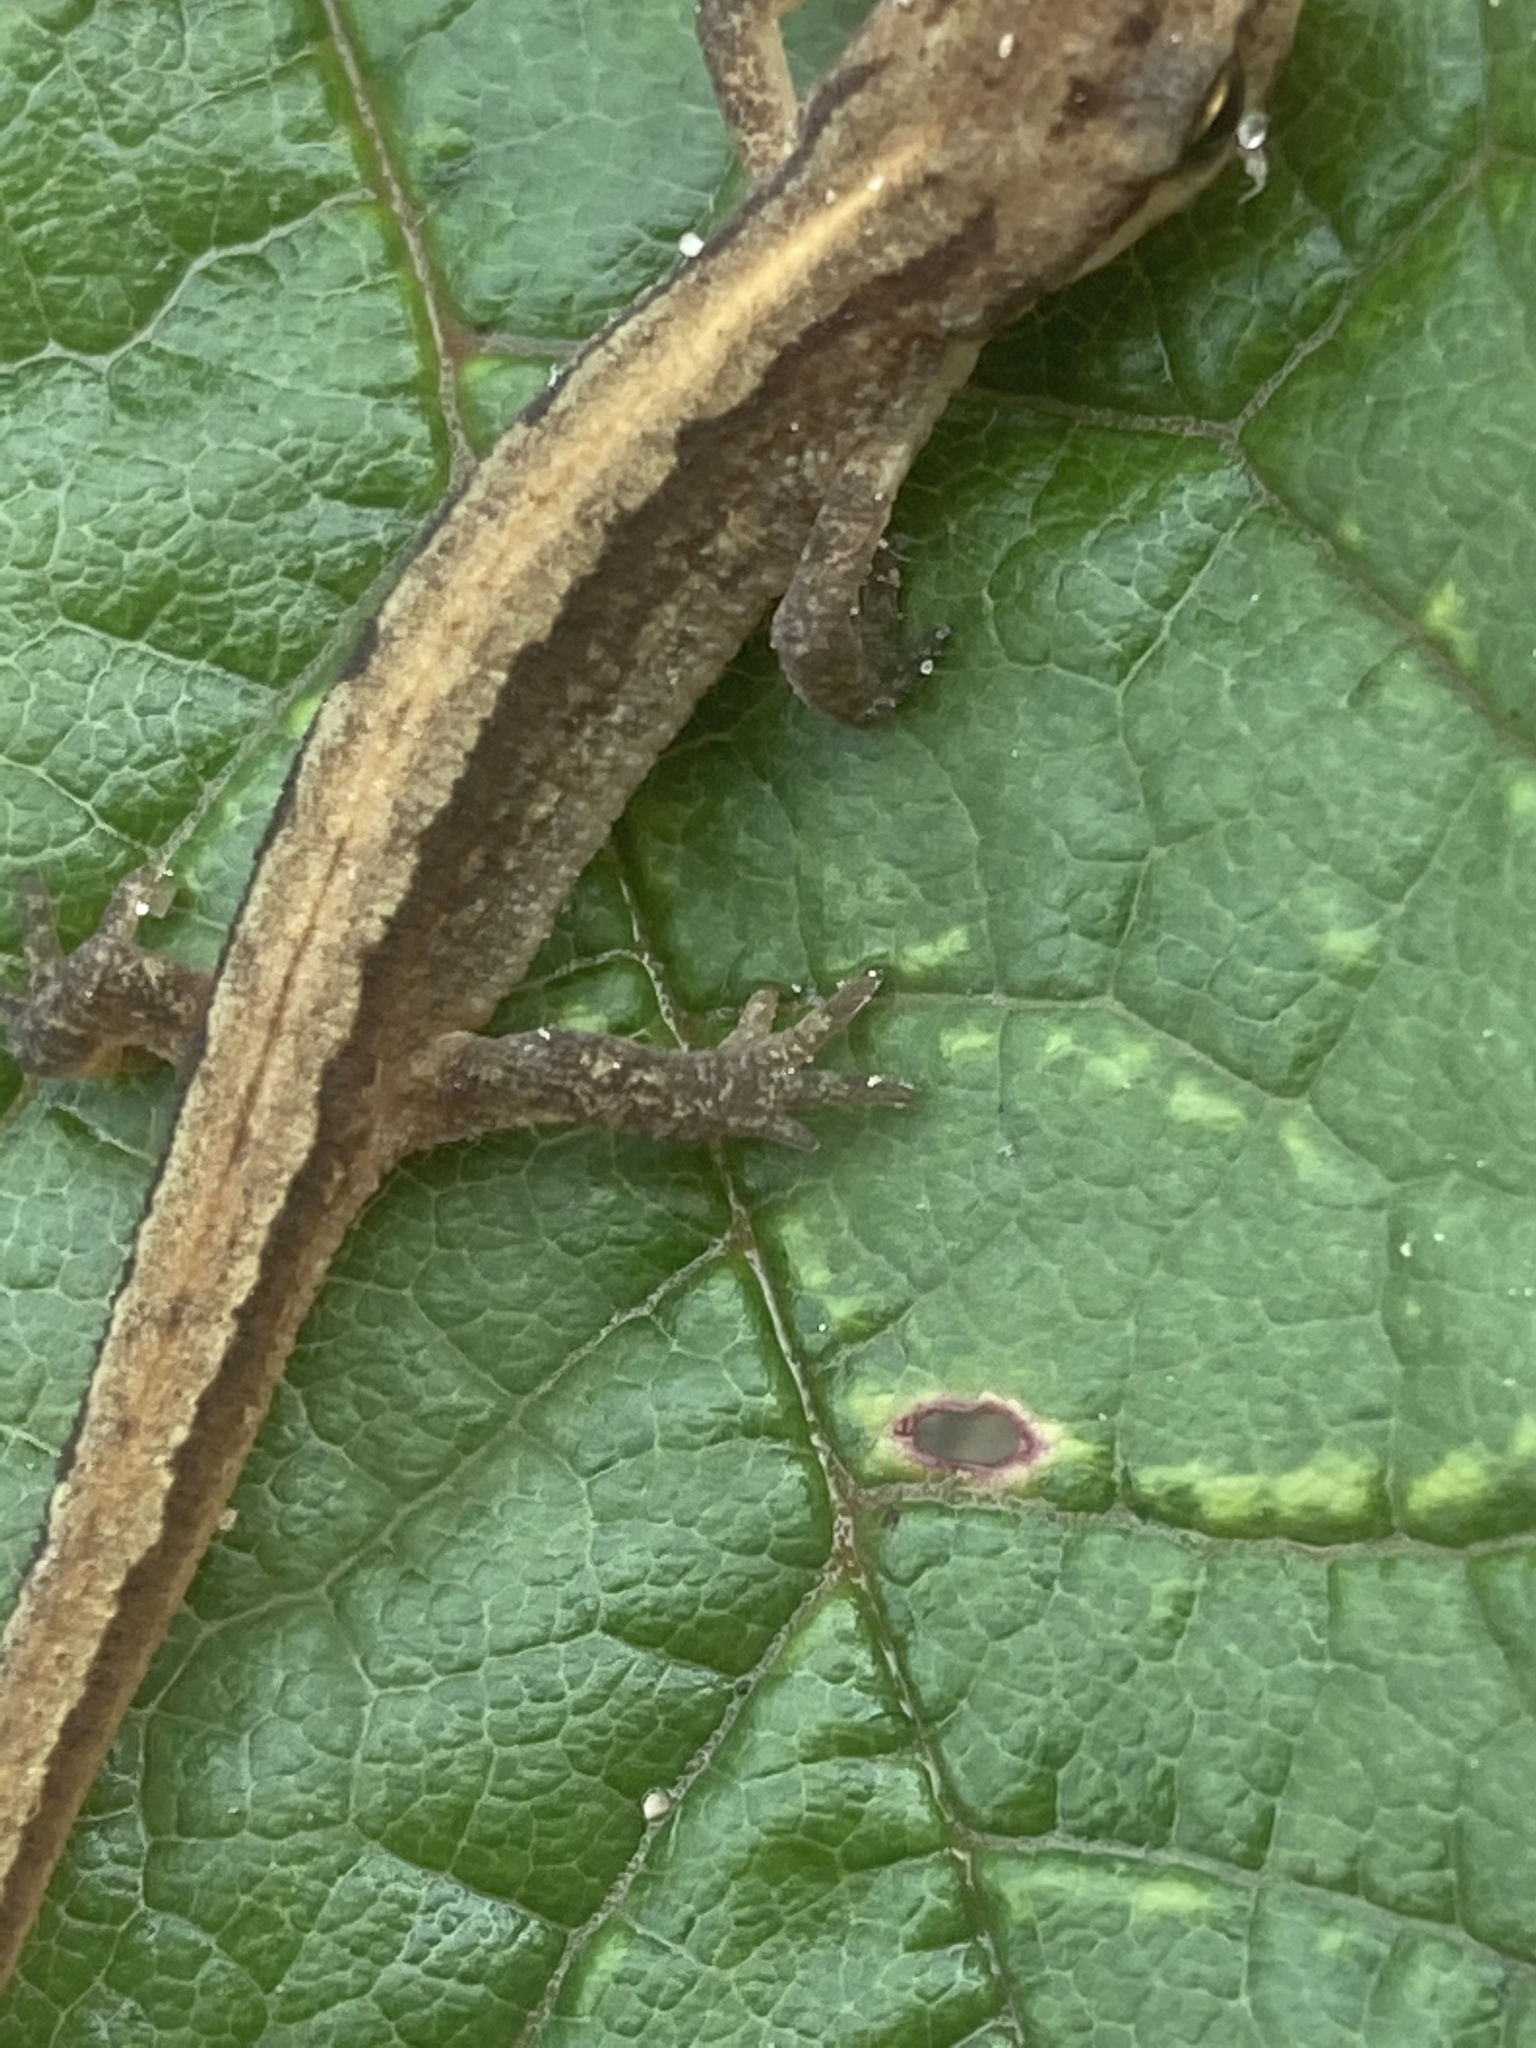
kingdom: Animalia
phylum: Chordata
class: Amphibia
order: Caudata
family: Salamandridae
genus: Lissotriton
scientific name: Lissotriton vulgaris
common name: Smooth newt
